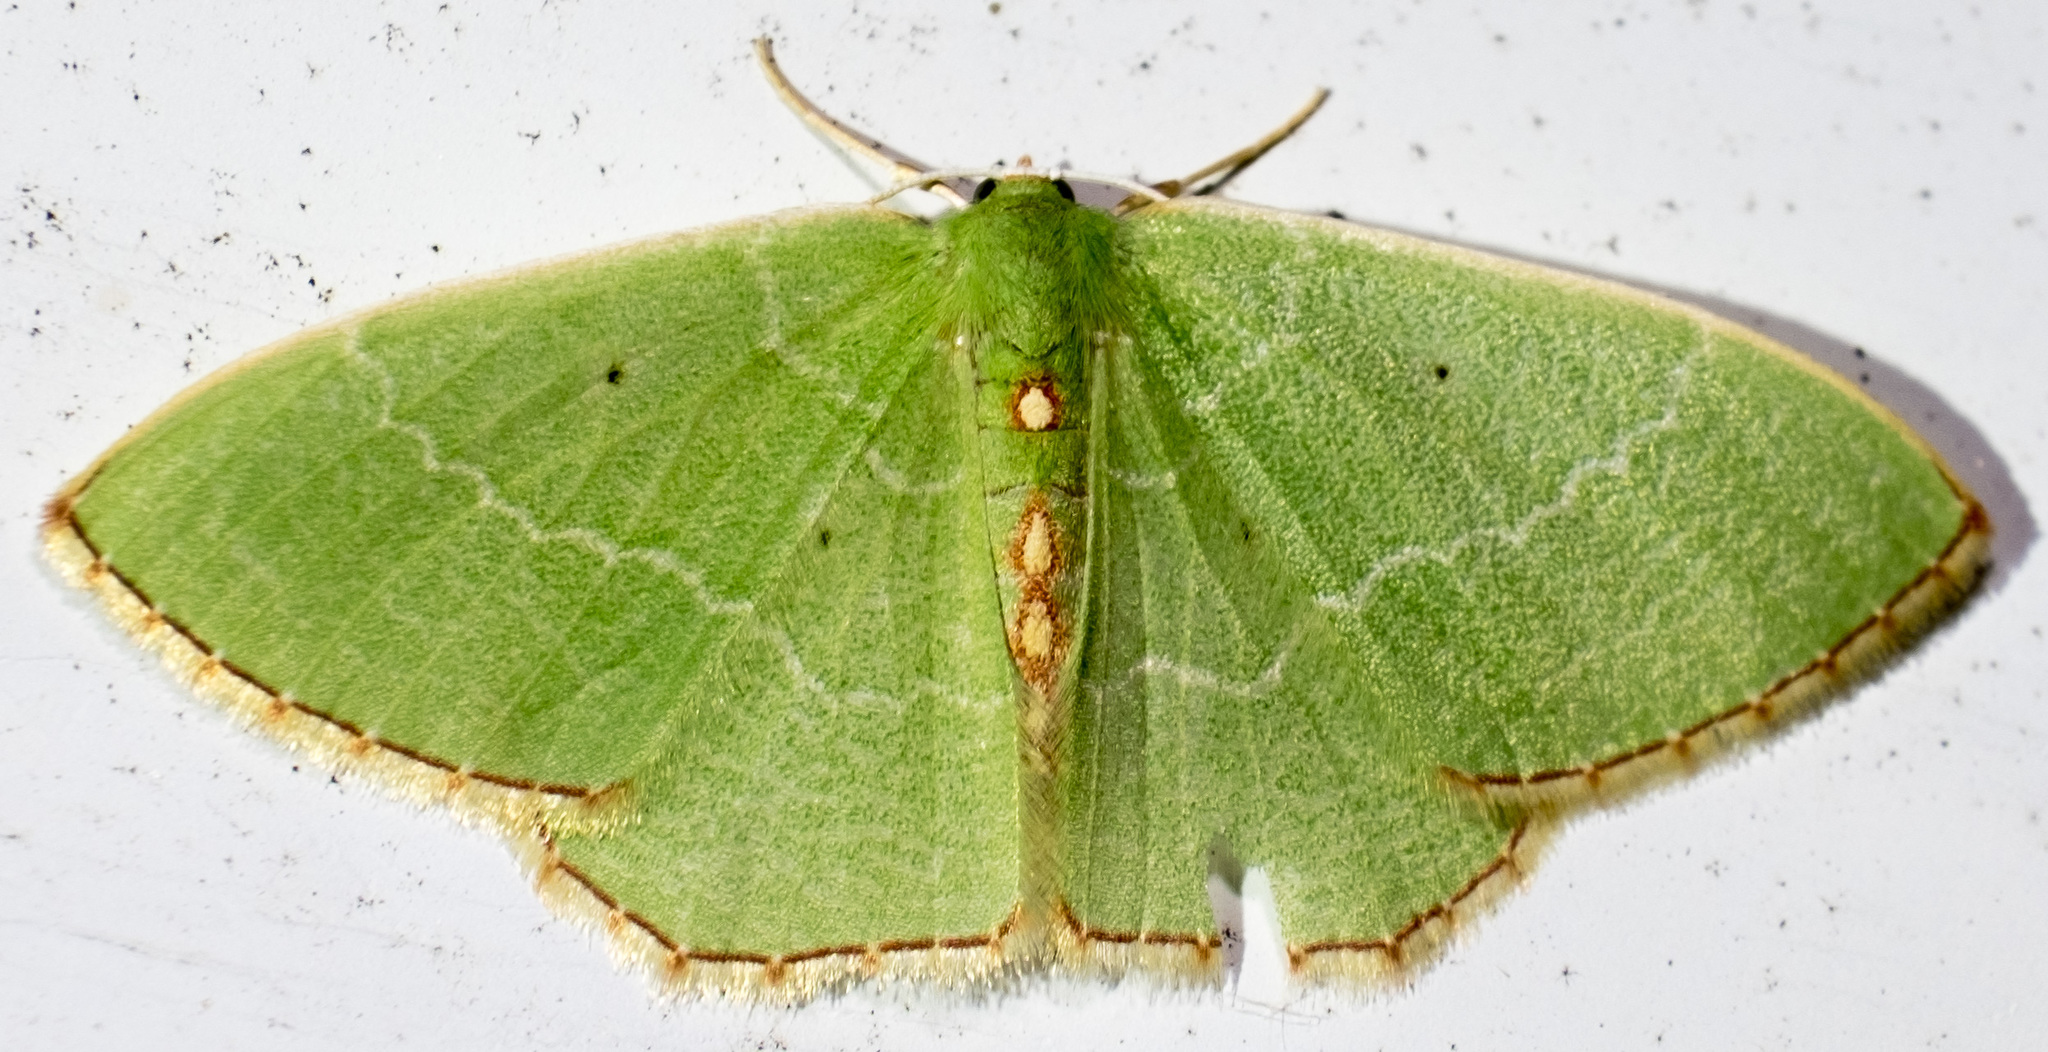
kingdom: Animalia
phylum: Arthropoda
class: Insecta
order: Lepidoptera
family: Geometridae
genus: Nemoria
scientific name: Nemoria lixaria
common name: Red-bordered emerald
